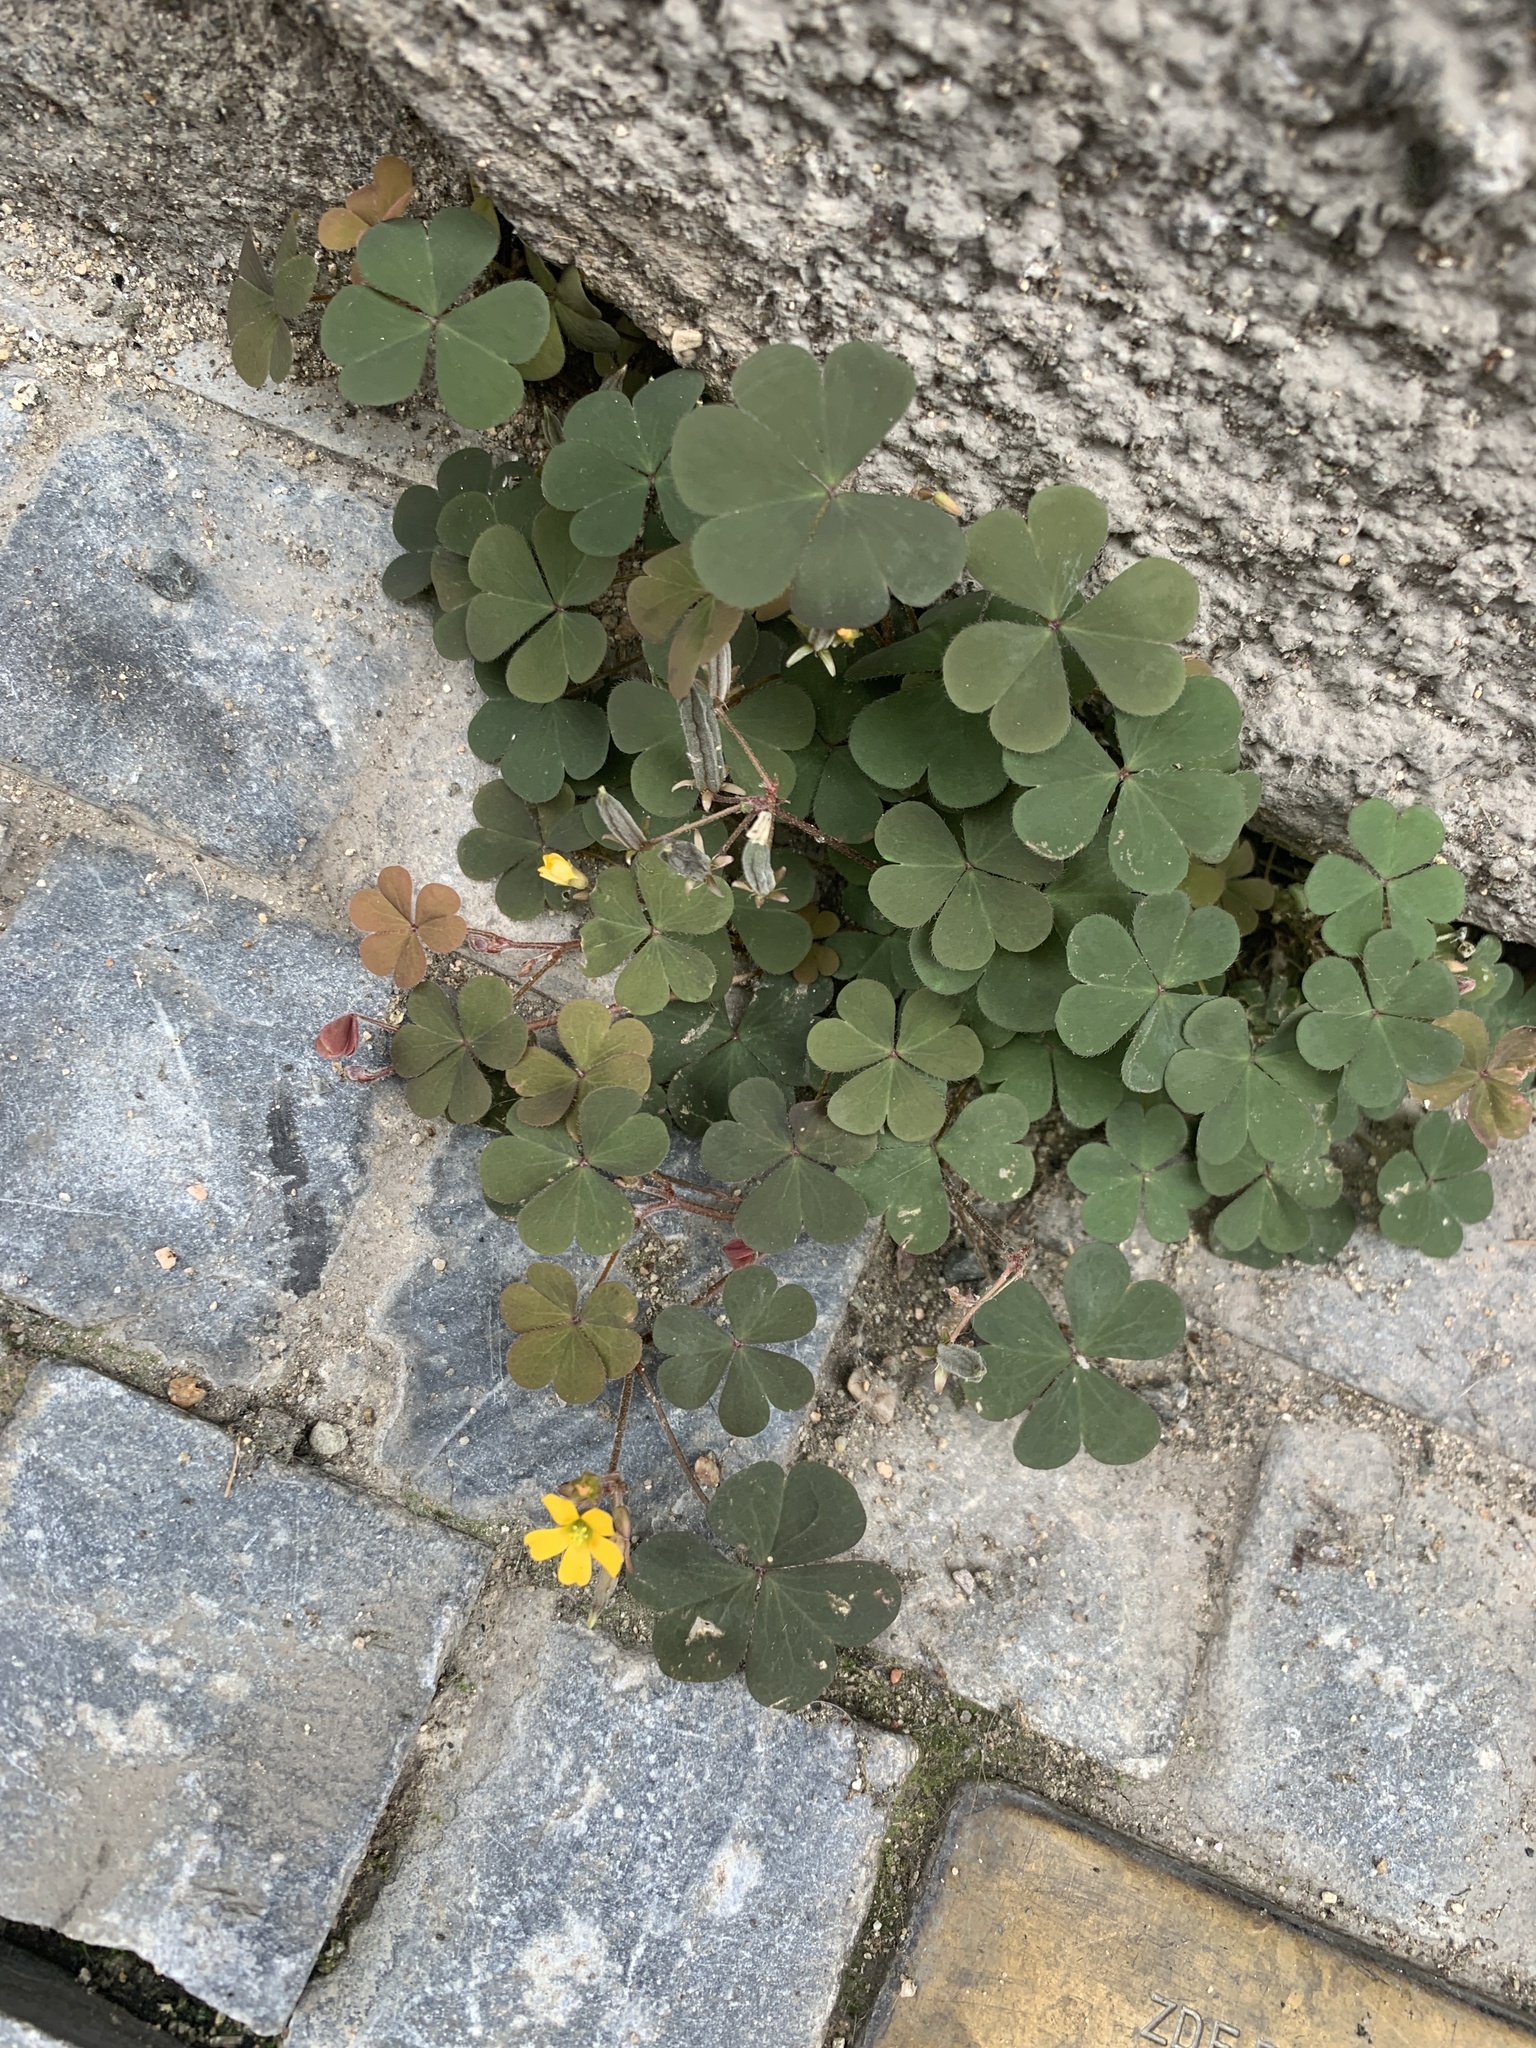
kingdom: Plantae
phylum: Tracheophyta
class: Magnoliopsida
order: Oxalidales
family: Oxalidaceae
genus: Oxalis
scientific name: Oxalis corniculata
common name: Procumbent yellow-sorrel
